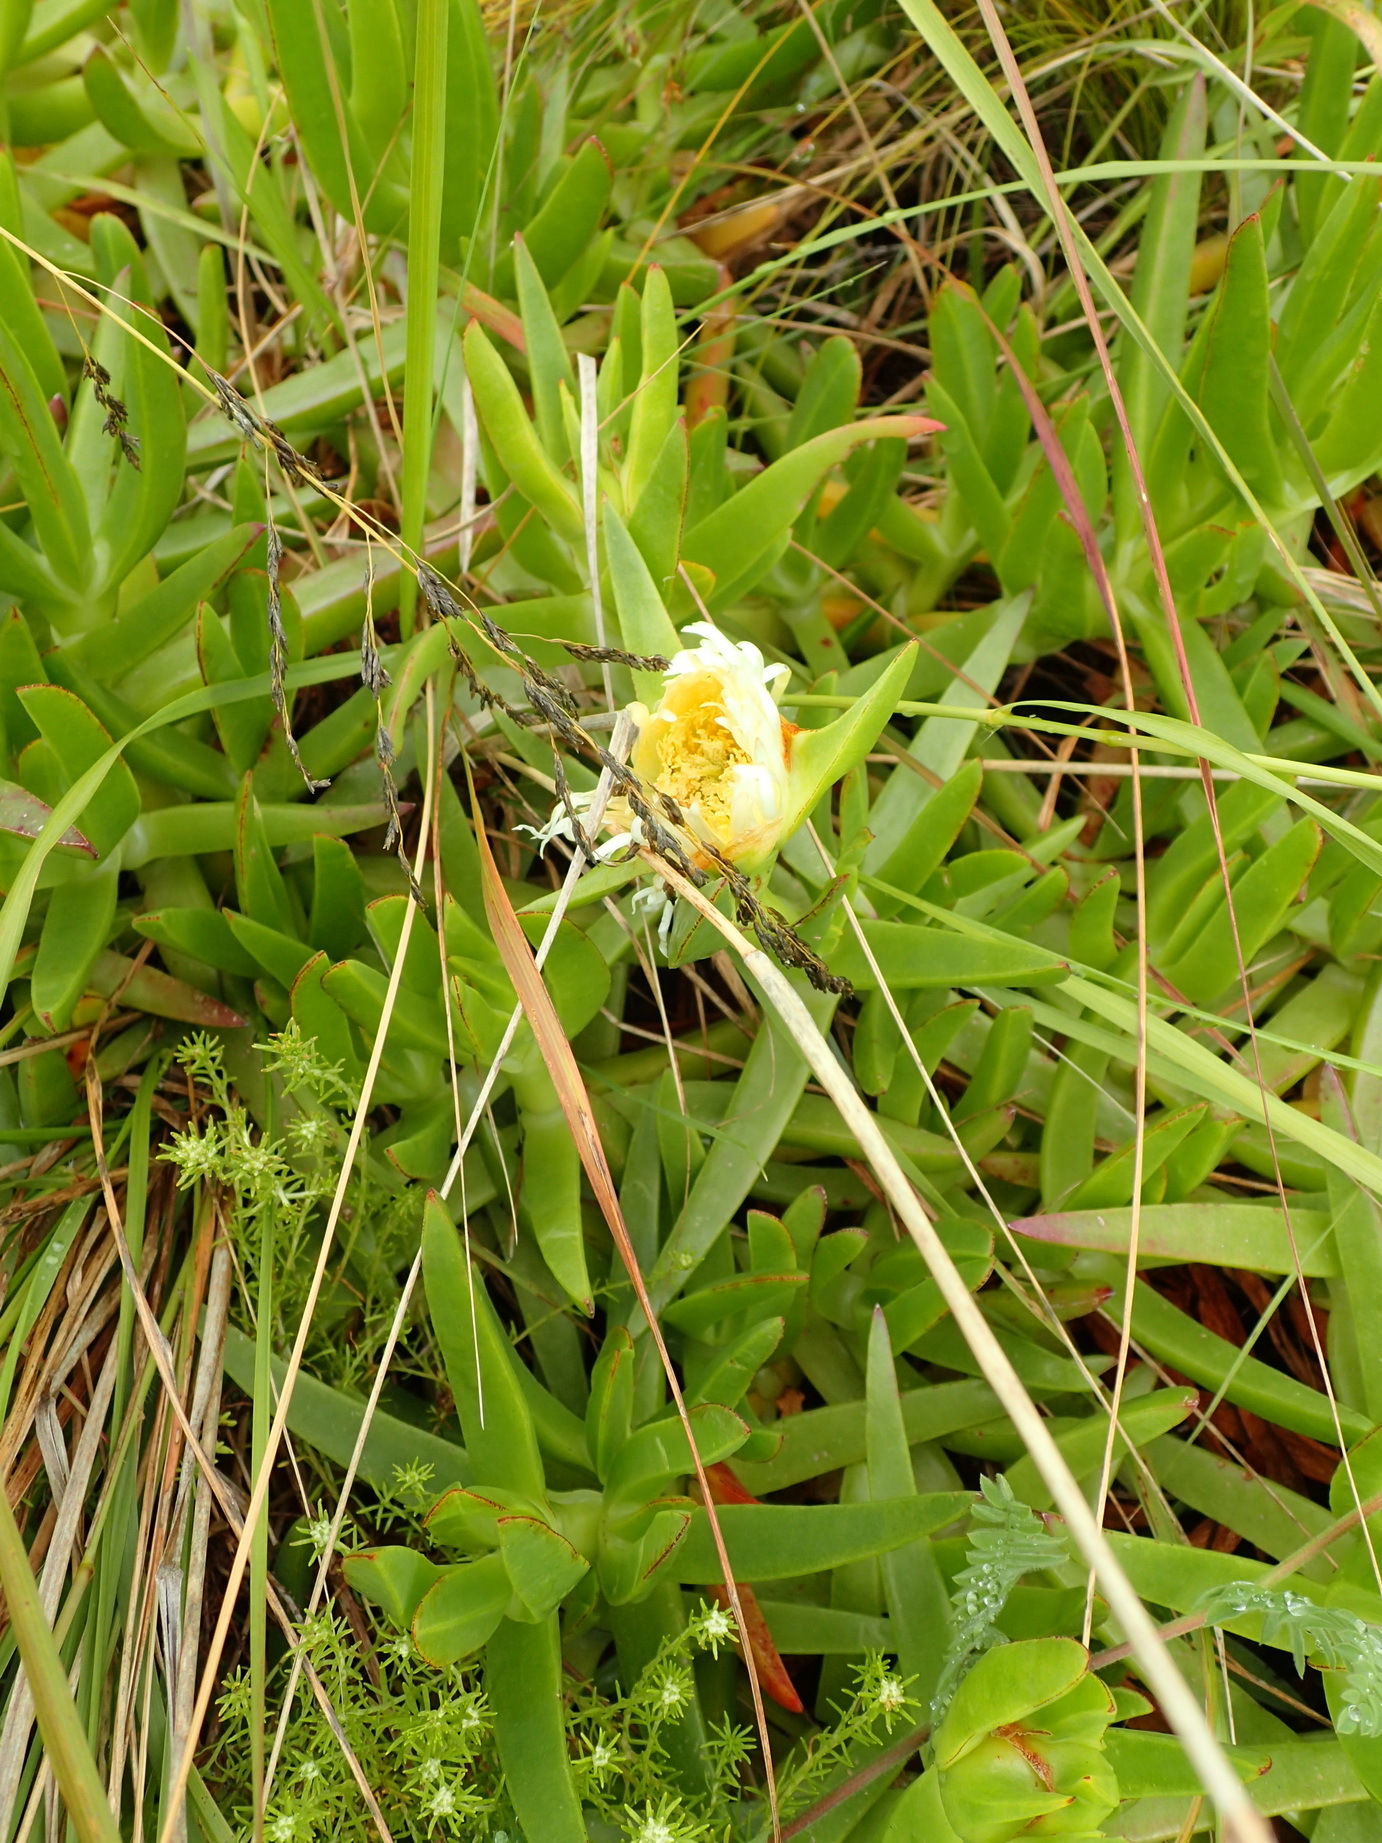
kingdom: Plantae
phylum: Tracheophyta
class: Magnoliopsida
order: Caryophyllales
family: Aizoaceae
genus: Carpobrotus
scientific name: Carpobrotus edulis
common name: Hottentot-fig
